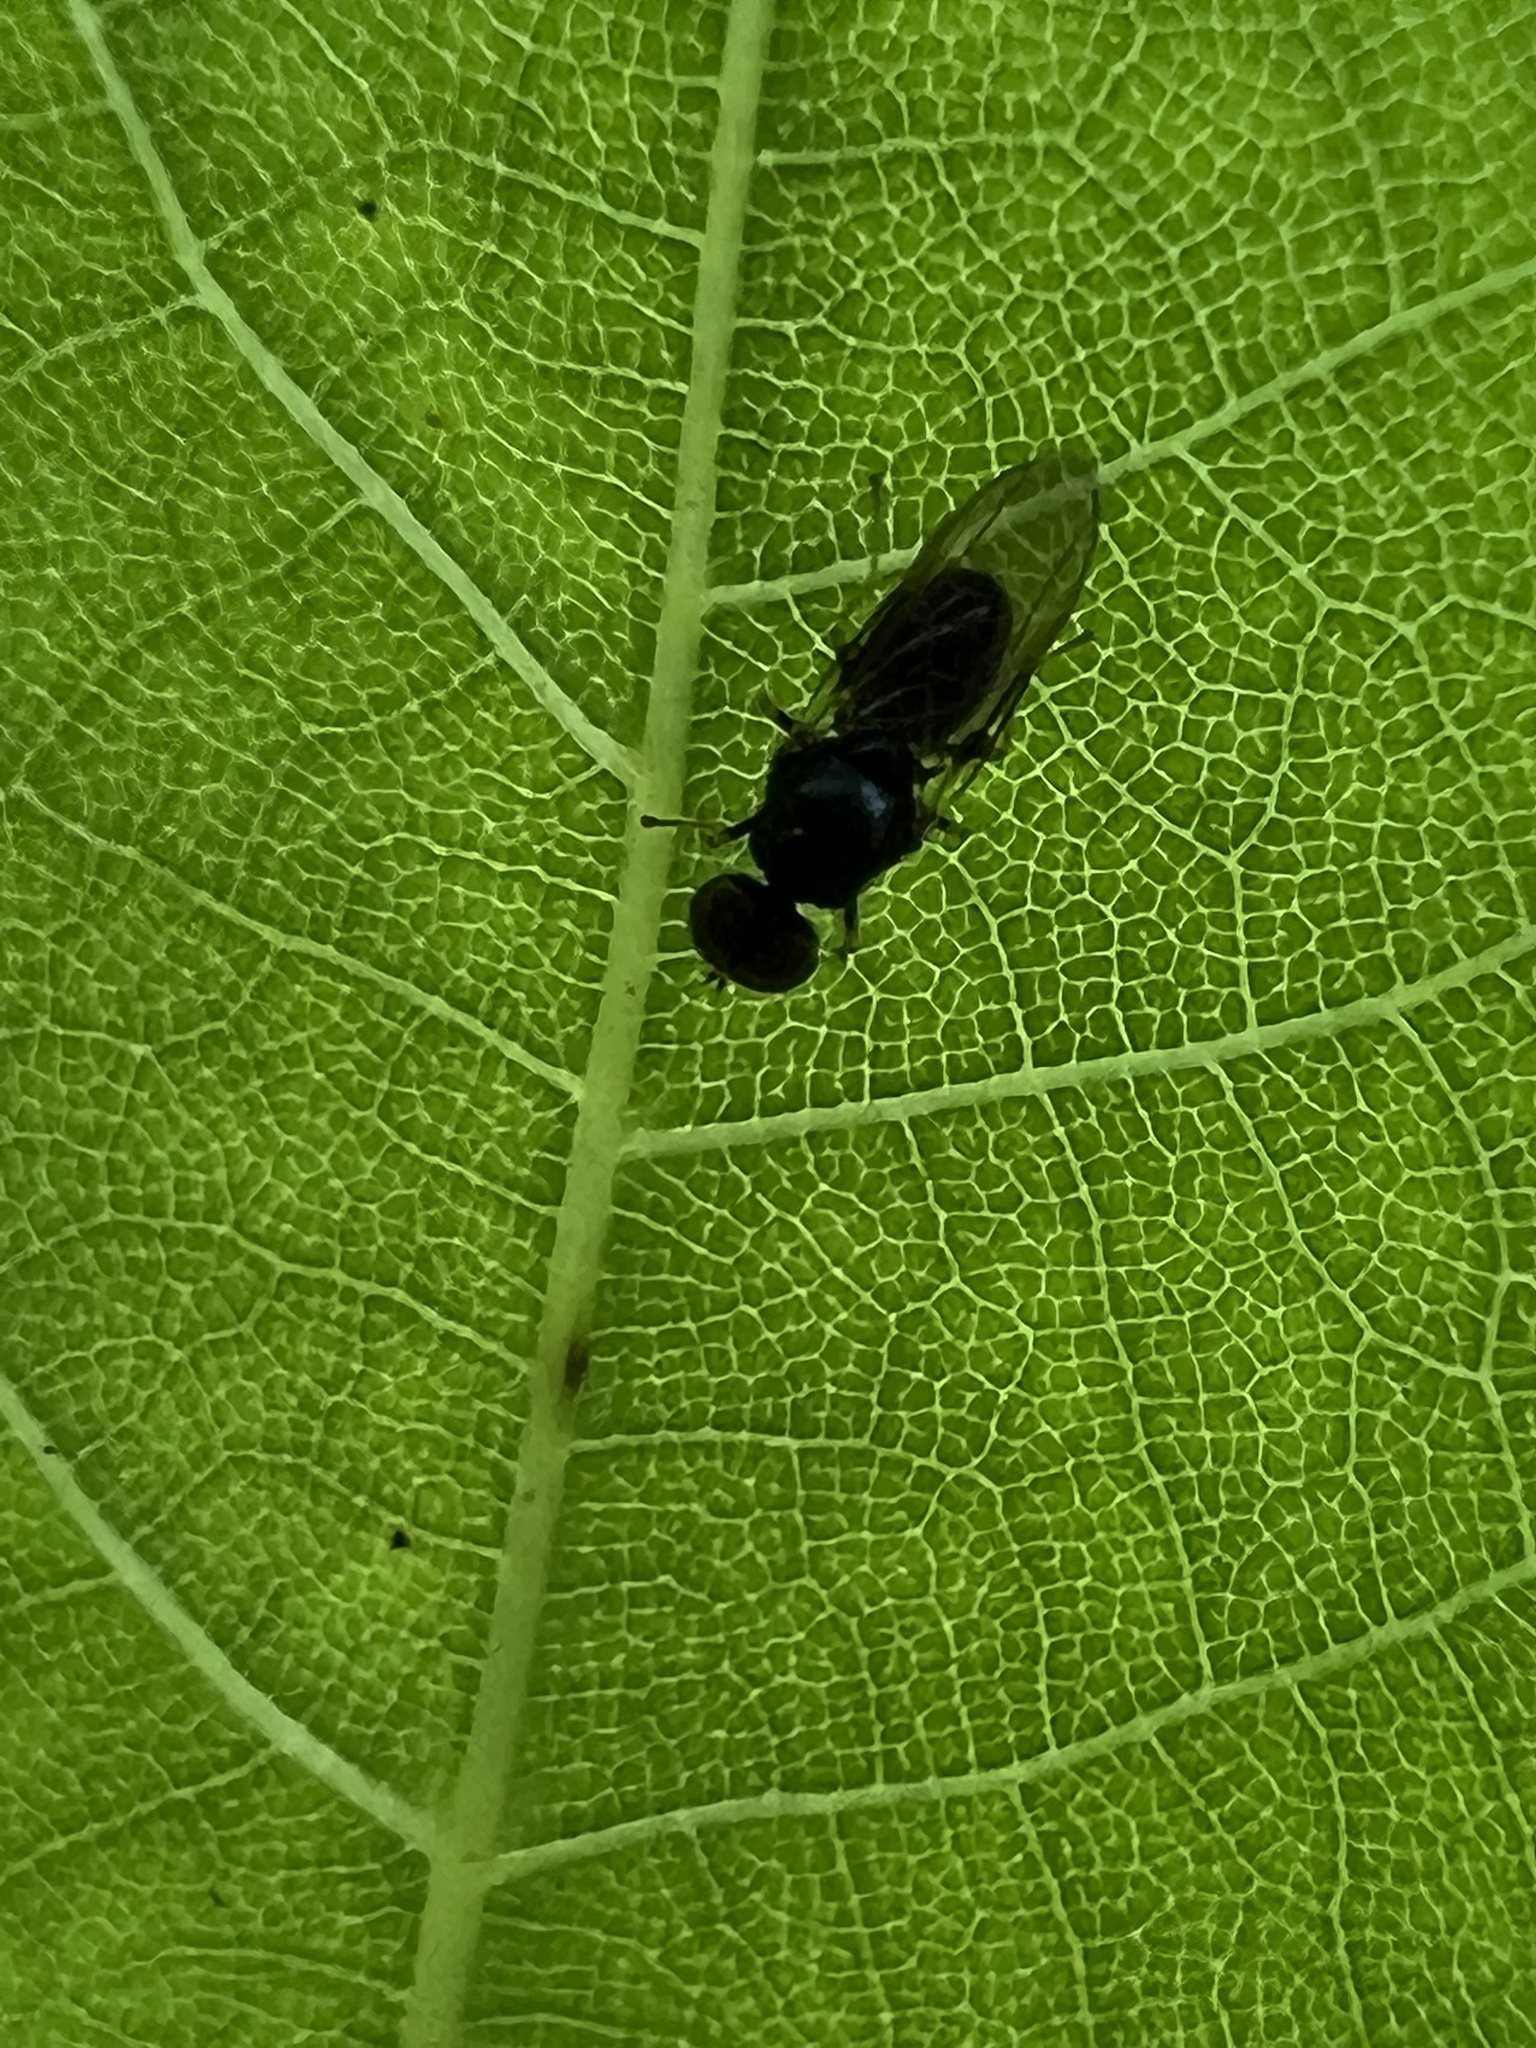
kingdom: Animalia
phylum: Arthropoda
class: Insecta
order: Diptera
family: Stratiomyidae
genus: Microchrysa
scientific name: Microchrysa polita
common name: Black-horned gem
